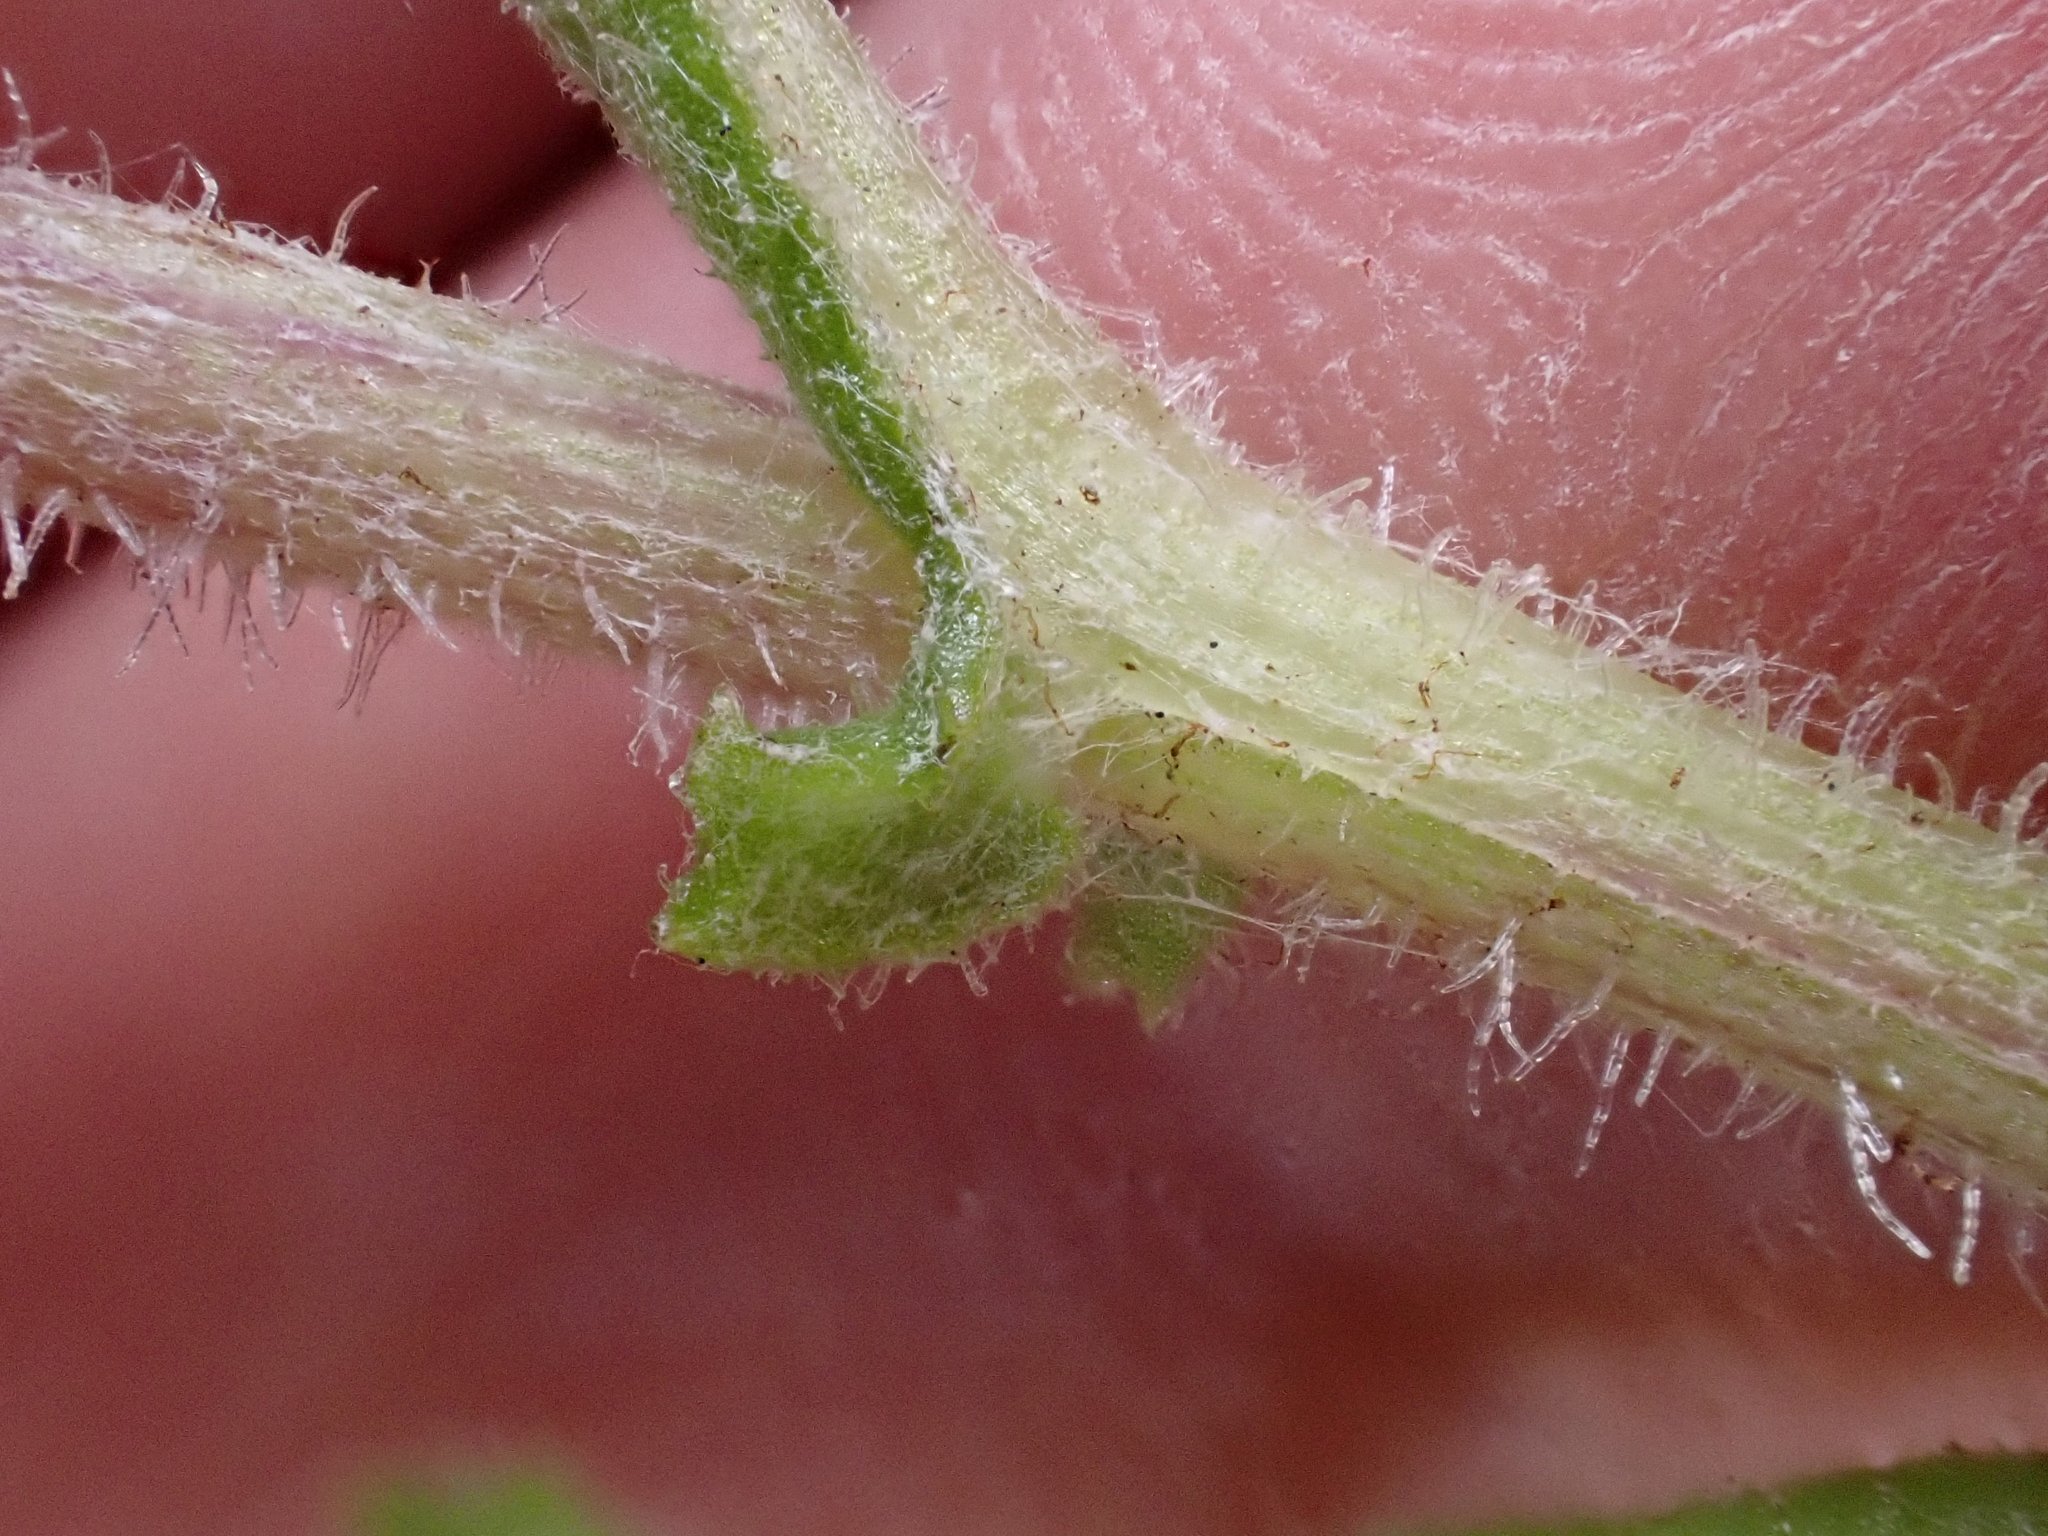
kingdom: Plantae
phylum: Tracheophyta
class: Magnoliopsida
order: Asterales
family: Asteraceae
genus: Senecio
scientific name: Senecio glomeratus
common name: Cutleaf burnweed
